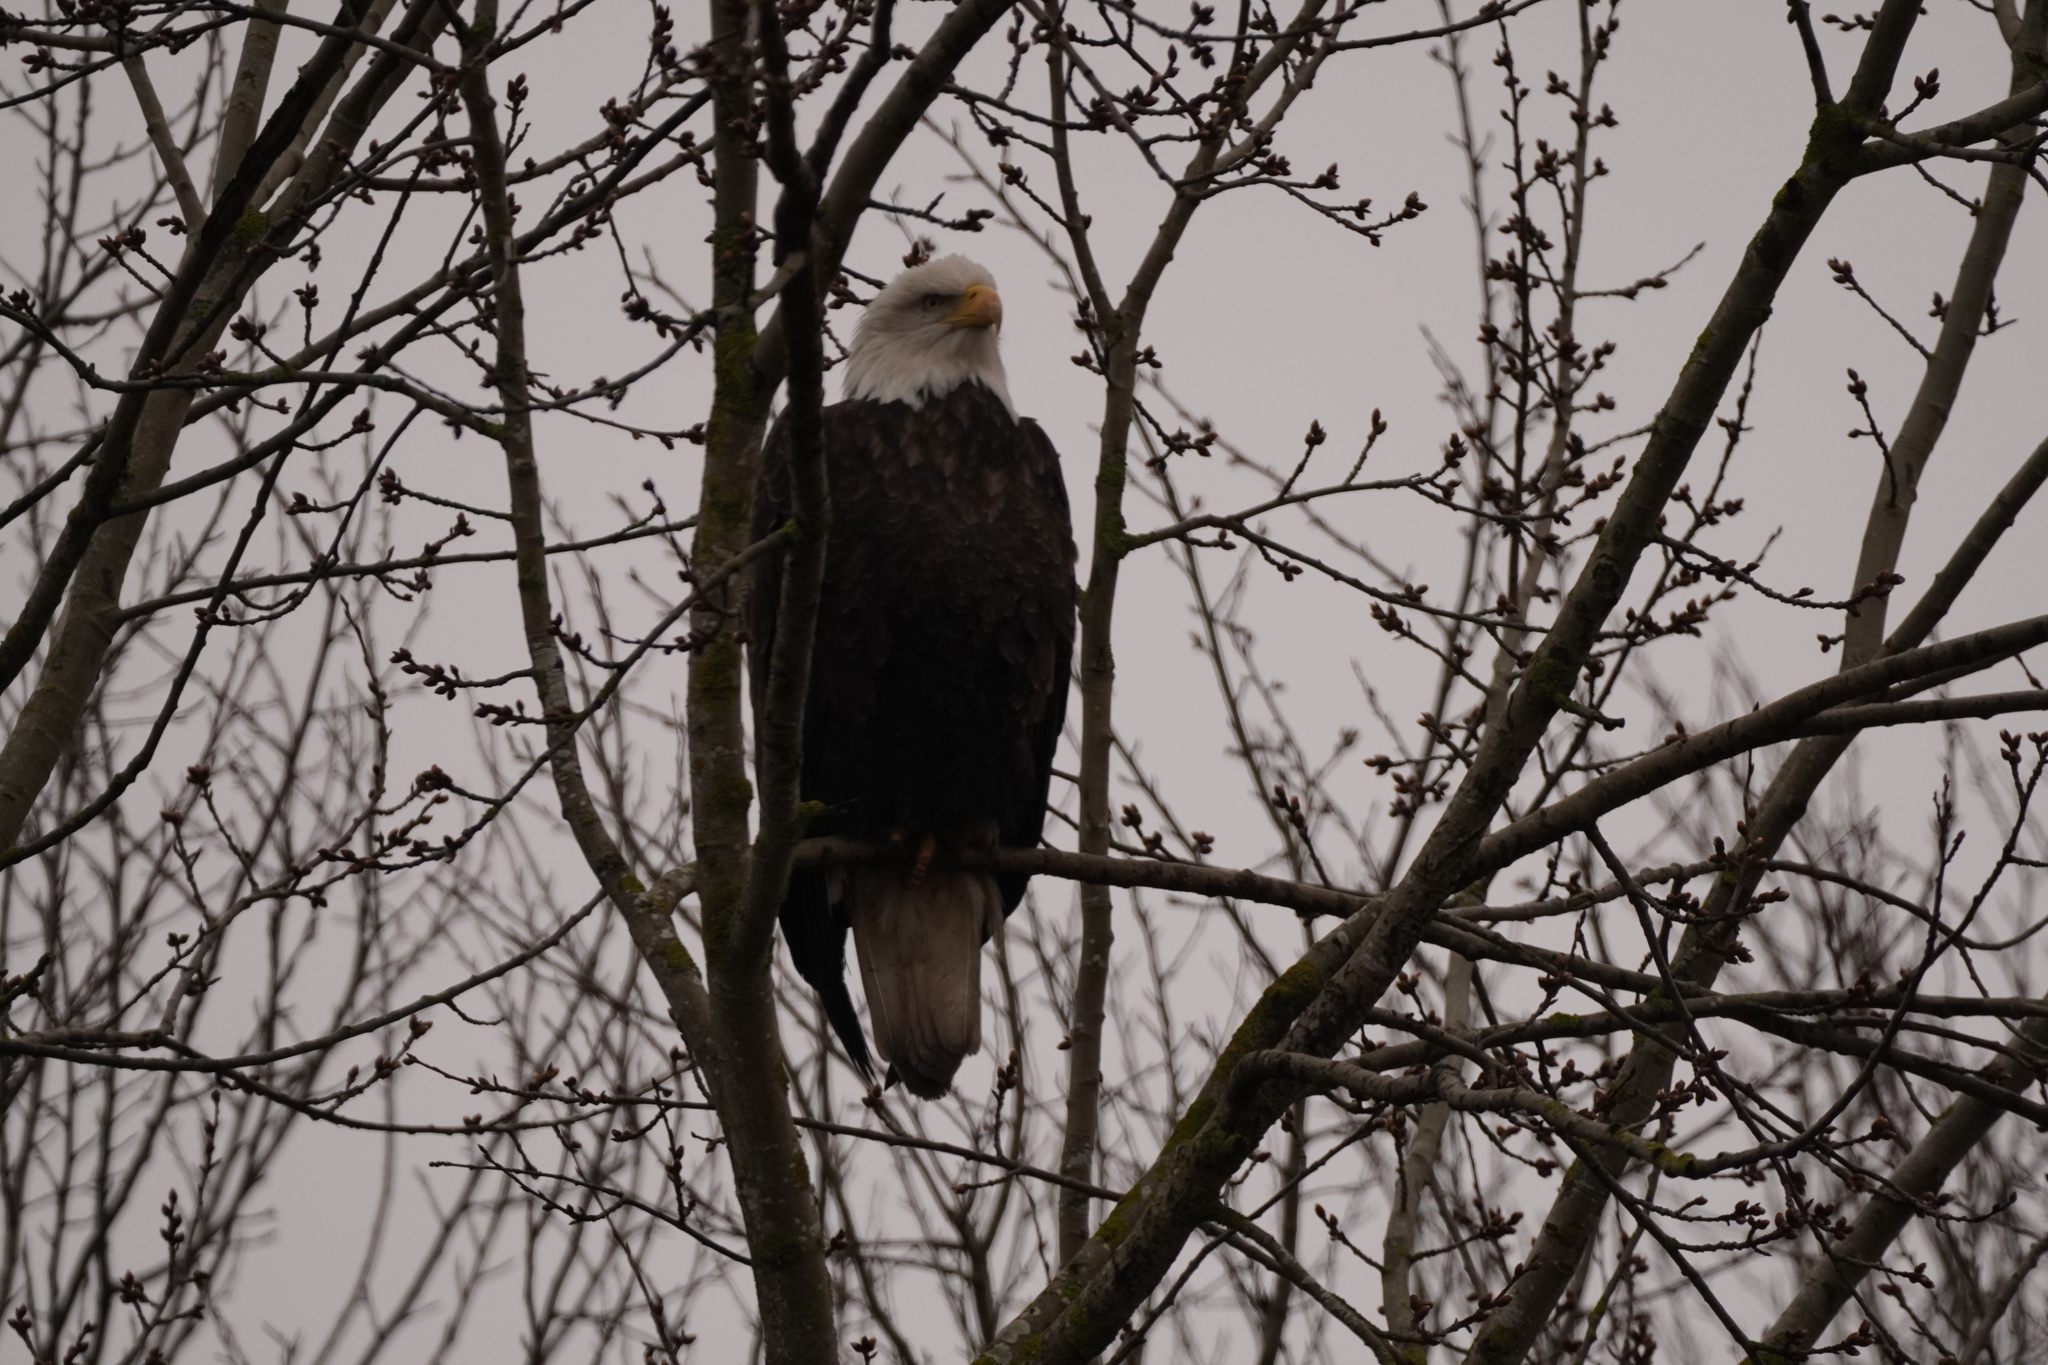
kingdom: Animalia
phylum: Chordata
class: Aves
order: Accipitriformes
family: Accipitridae
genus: Haliaeetus
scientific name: Haliaeetus leucocephalus
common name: Bald eagle
